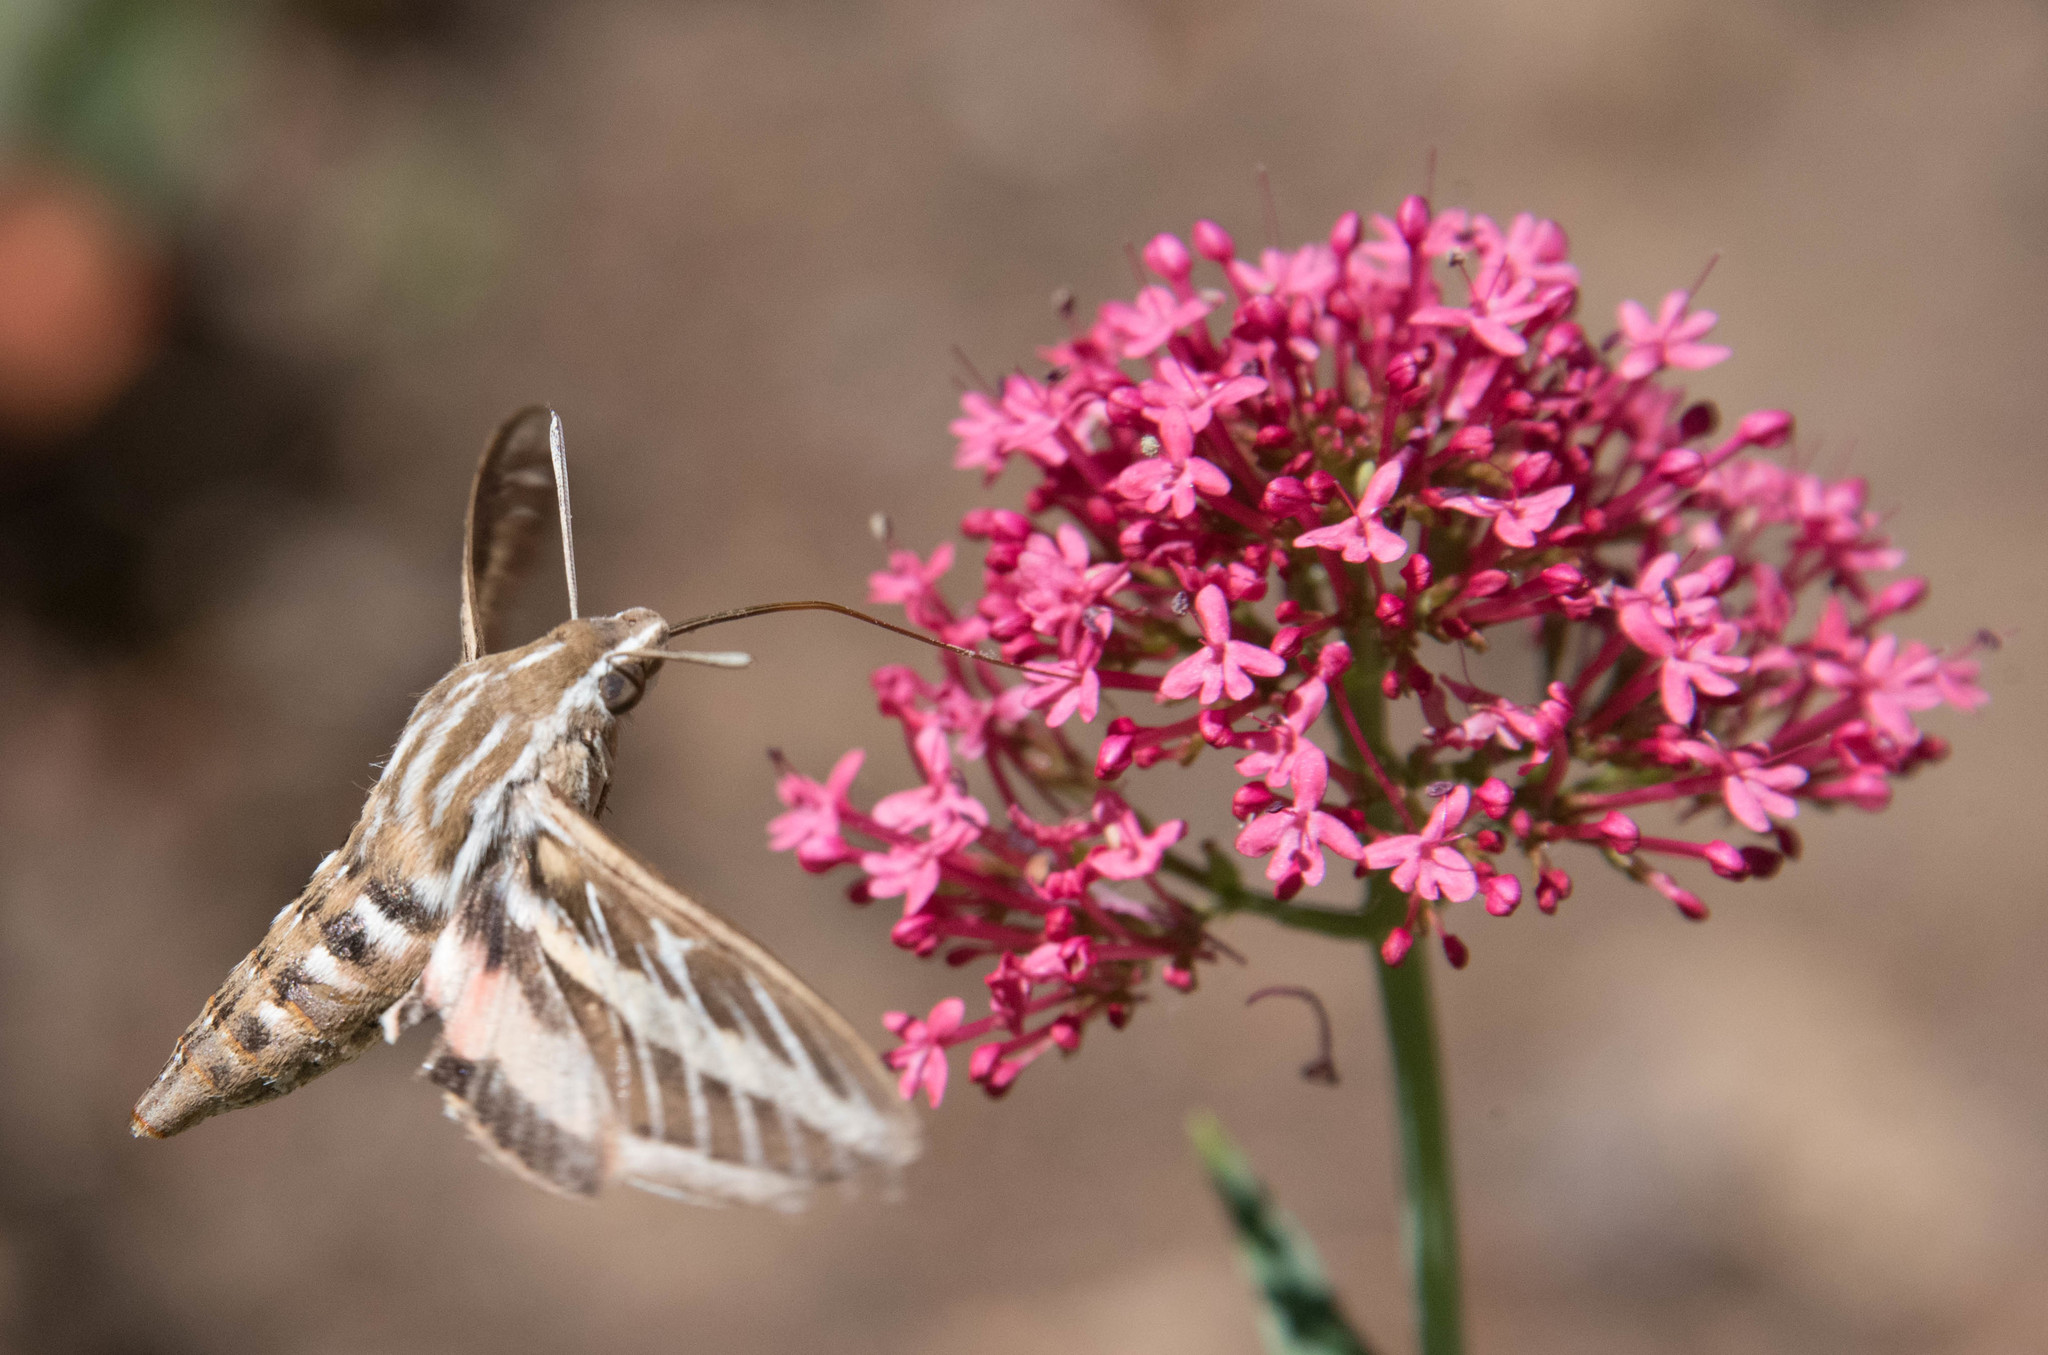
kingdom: Animalia
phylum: Arthropoda
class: Insecta
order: Lepidoptera
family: Sphingidae
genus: Hyles
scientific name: Hyles lineata
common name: White-lined sphinx
